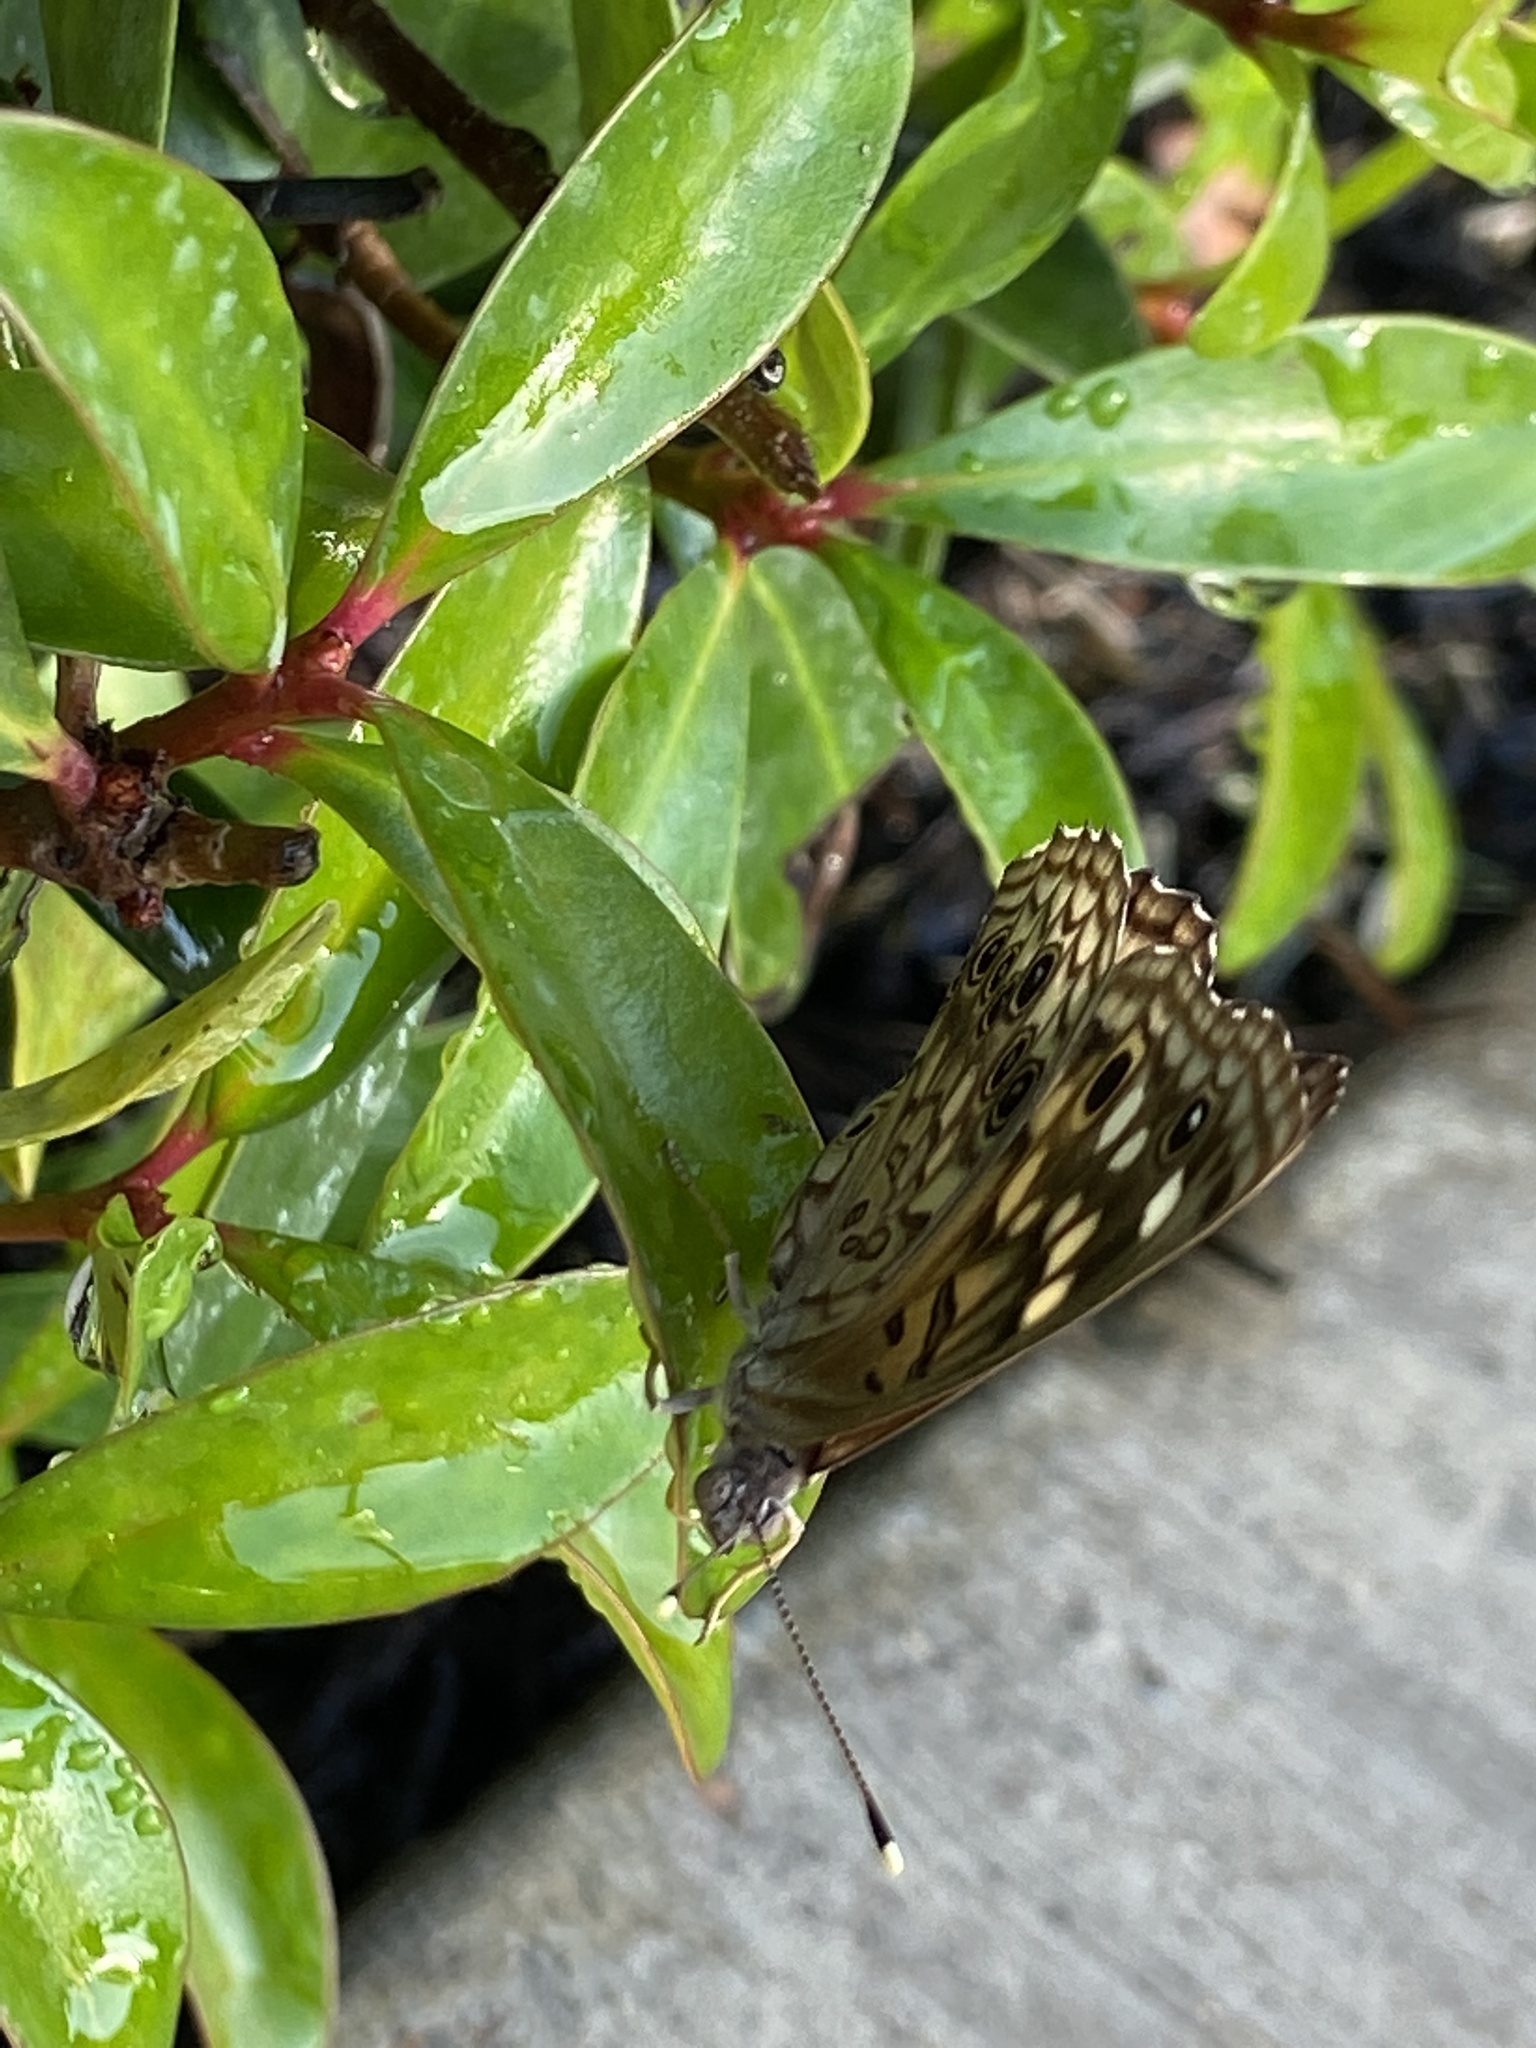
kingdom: Animalia
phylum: Arthropoda
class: Insecta
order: Lepidoptera
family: Nymphalidae
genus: Asterocampa
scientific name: Asterocampa celtis
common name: Hackberry emperor
